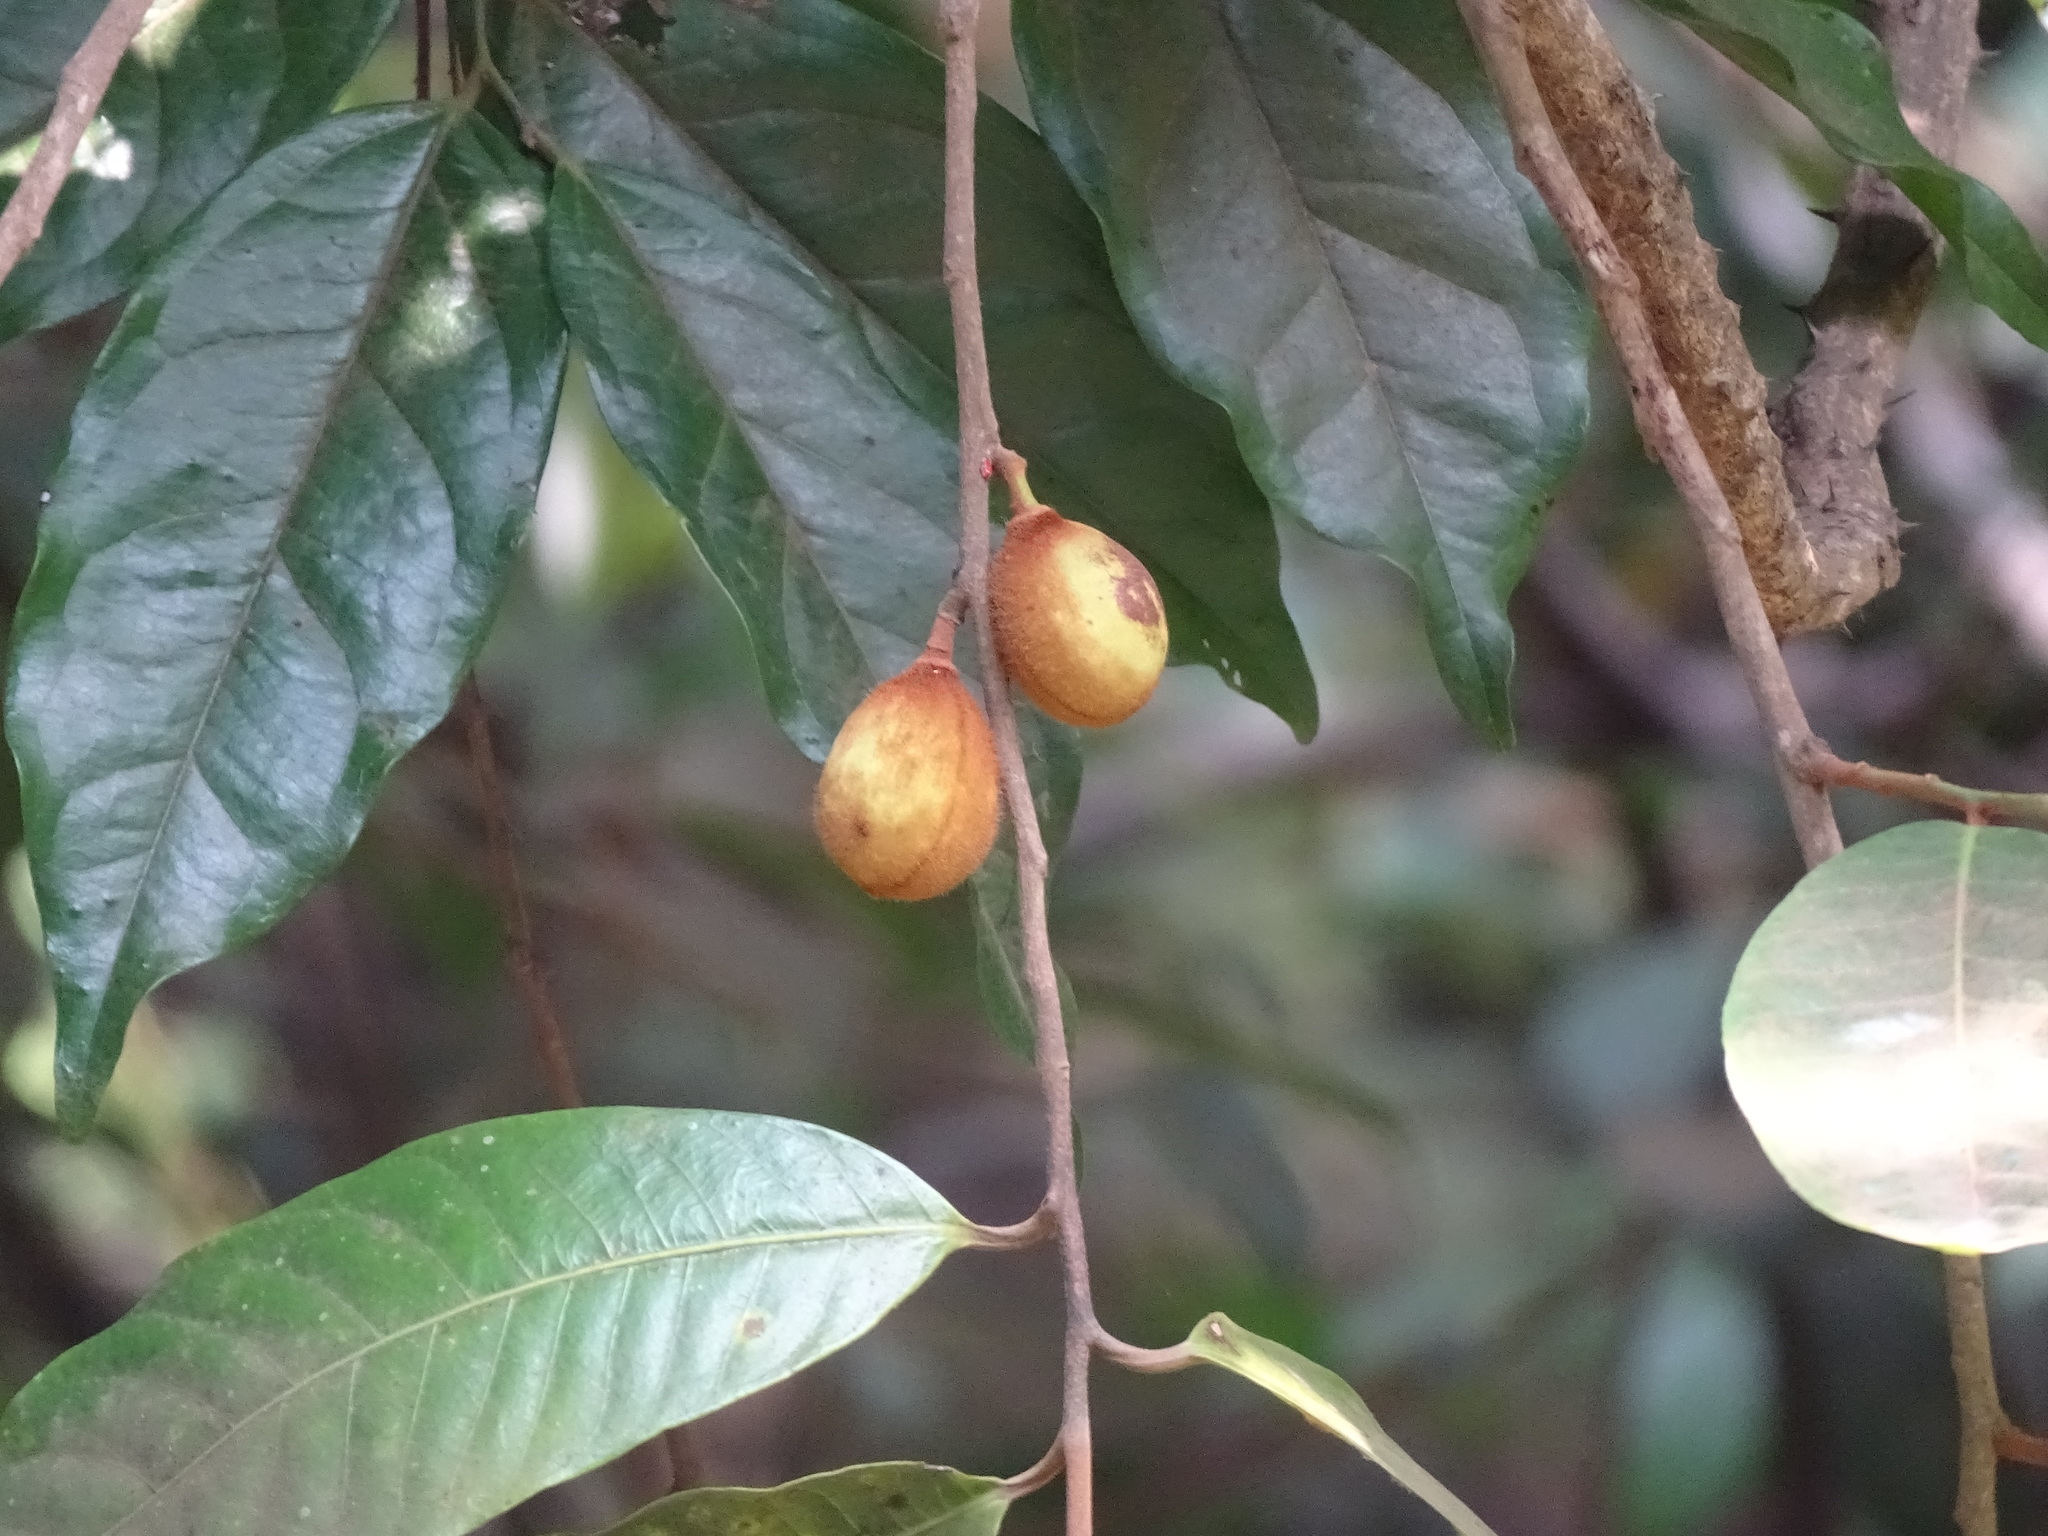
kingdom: Plantae
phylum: Tracheophyta
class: Magnoliopsida
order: Magnoliales
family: Myristicaceae
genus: Knema
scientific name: Knema attenuata
